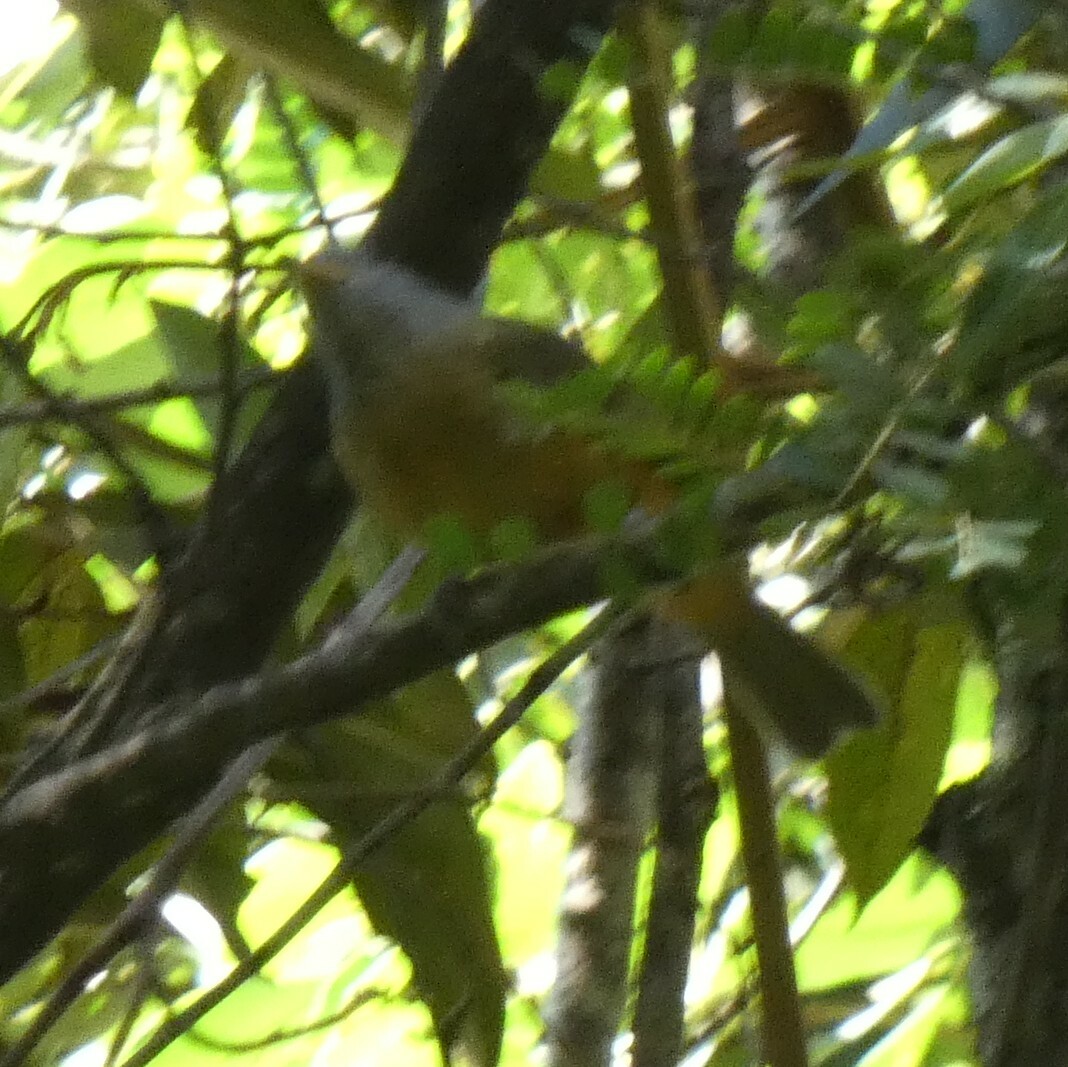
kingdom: Animalia
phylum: Chordata
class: Aves
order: Passeriformes
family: Tyrannidae
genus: Mionectes
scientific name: Mionectes rufiventris
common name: Grey-hooded flycatcher
